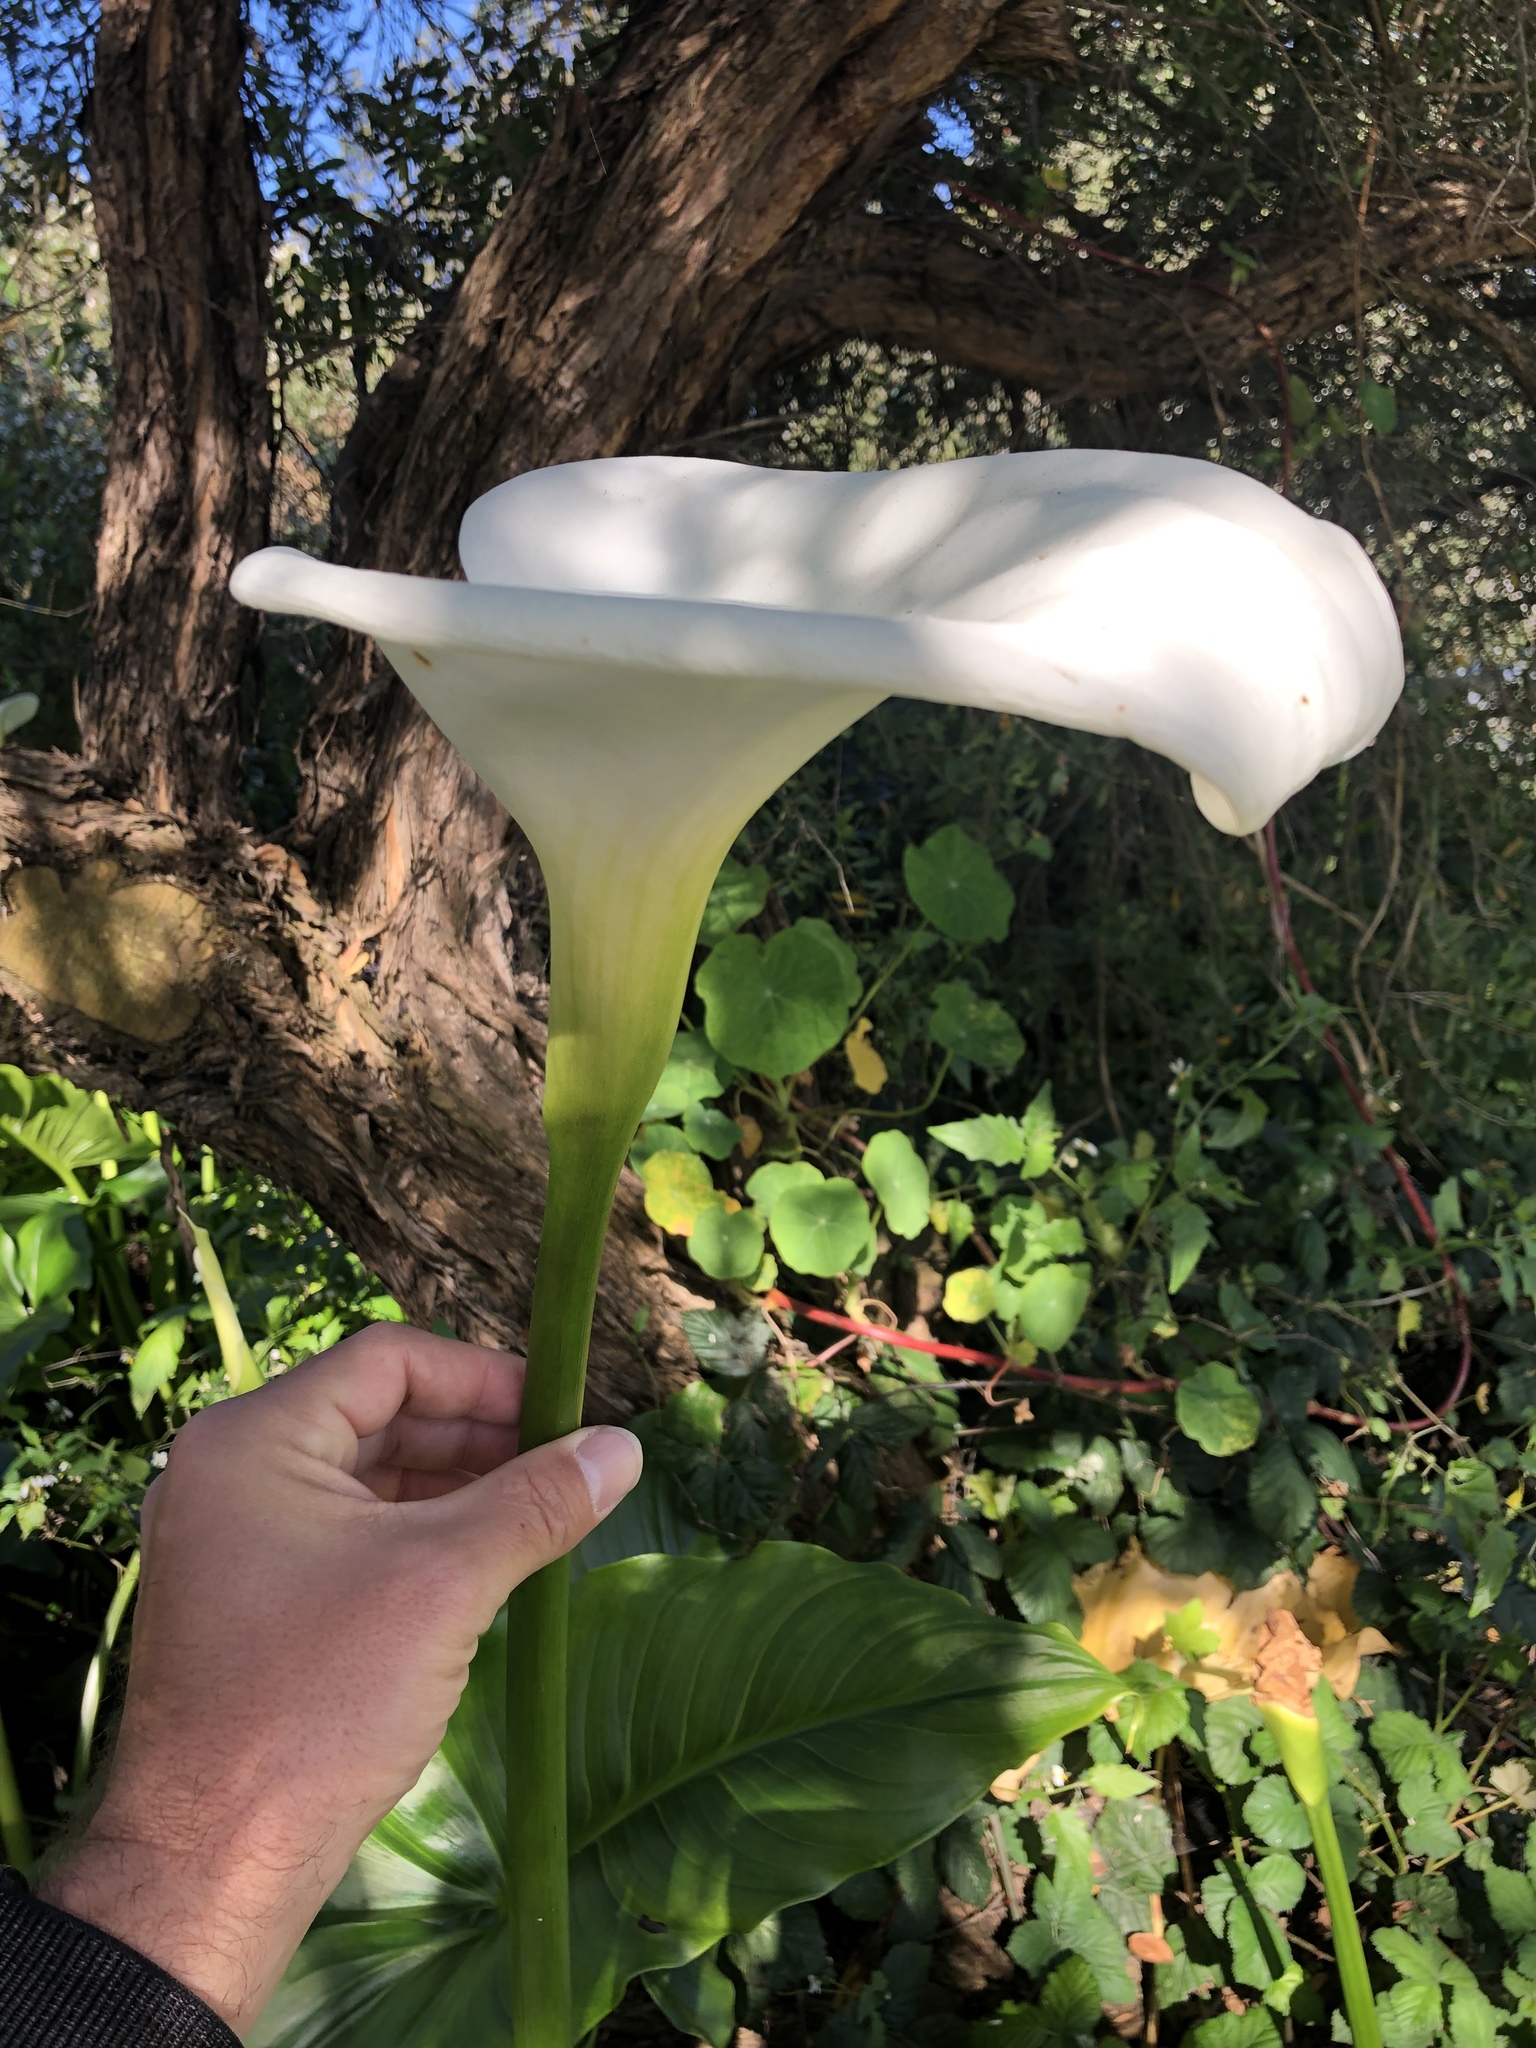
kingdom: Plantae
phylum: Tracheophyta
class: Liliopsida
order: Alismatales
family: Araceae
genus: Zantedeschia
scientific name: Zantedeschia aethiopica
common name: Altar-lily
